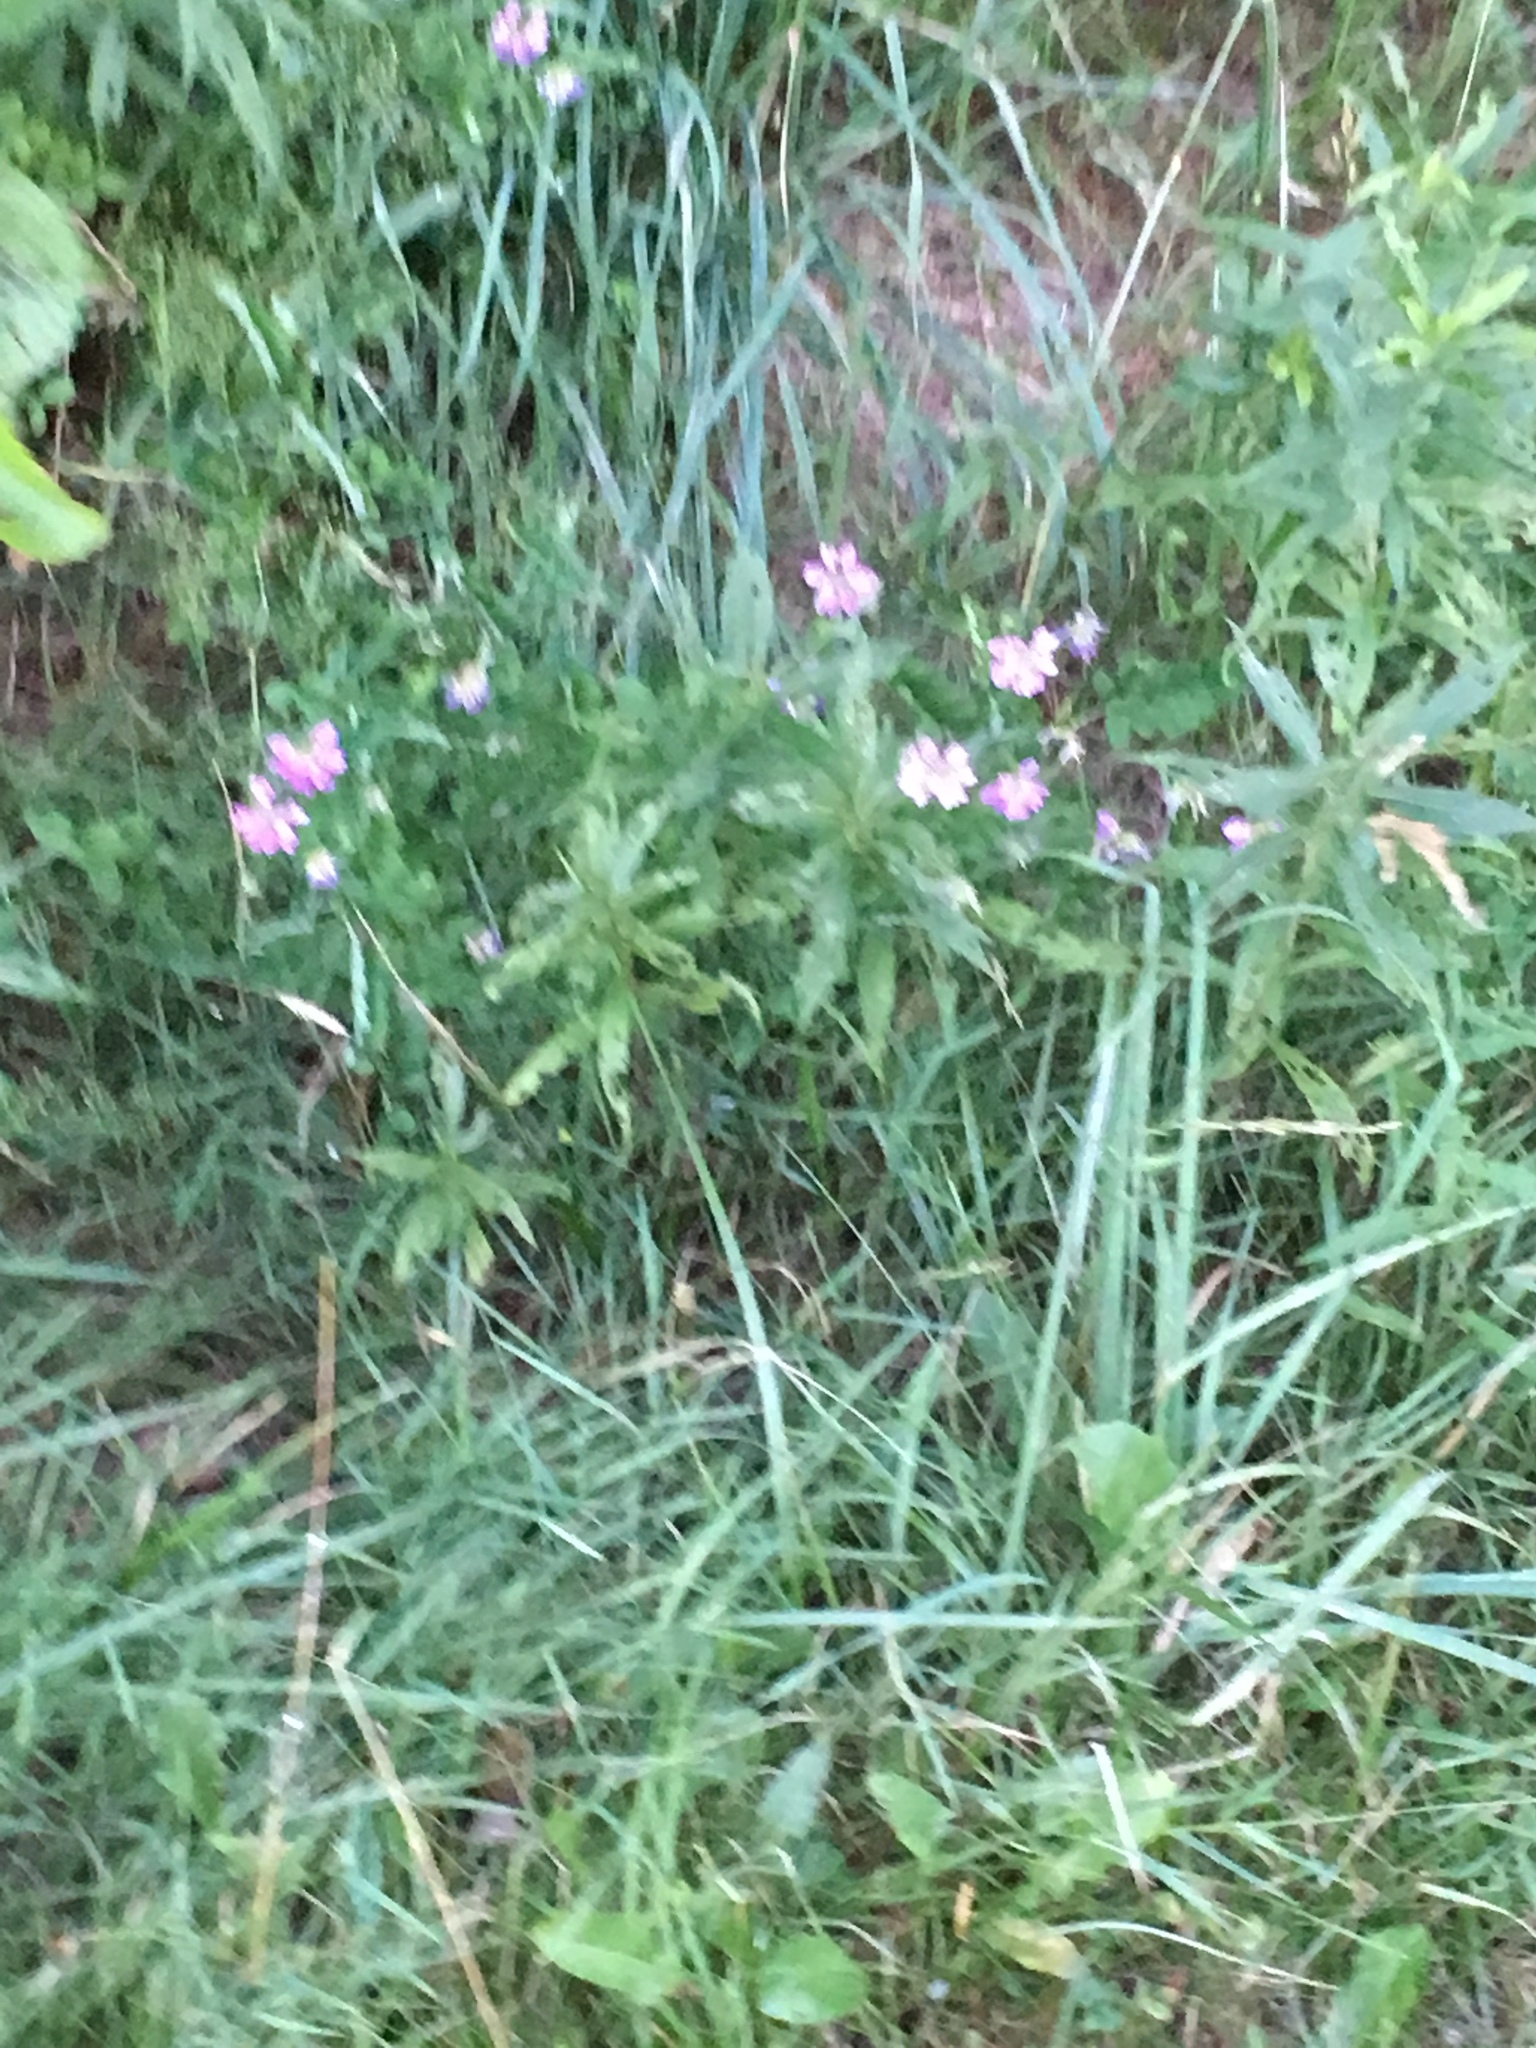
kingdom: Plantae
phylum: Tracheophyta
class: Magnoliopsida
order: Fabales
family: Fabaceae
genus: Coronilla
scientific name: Coronilla varia
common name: Crownvetch
